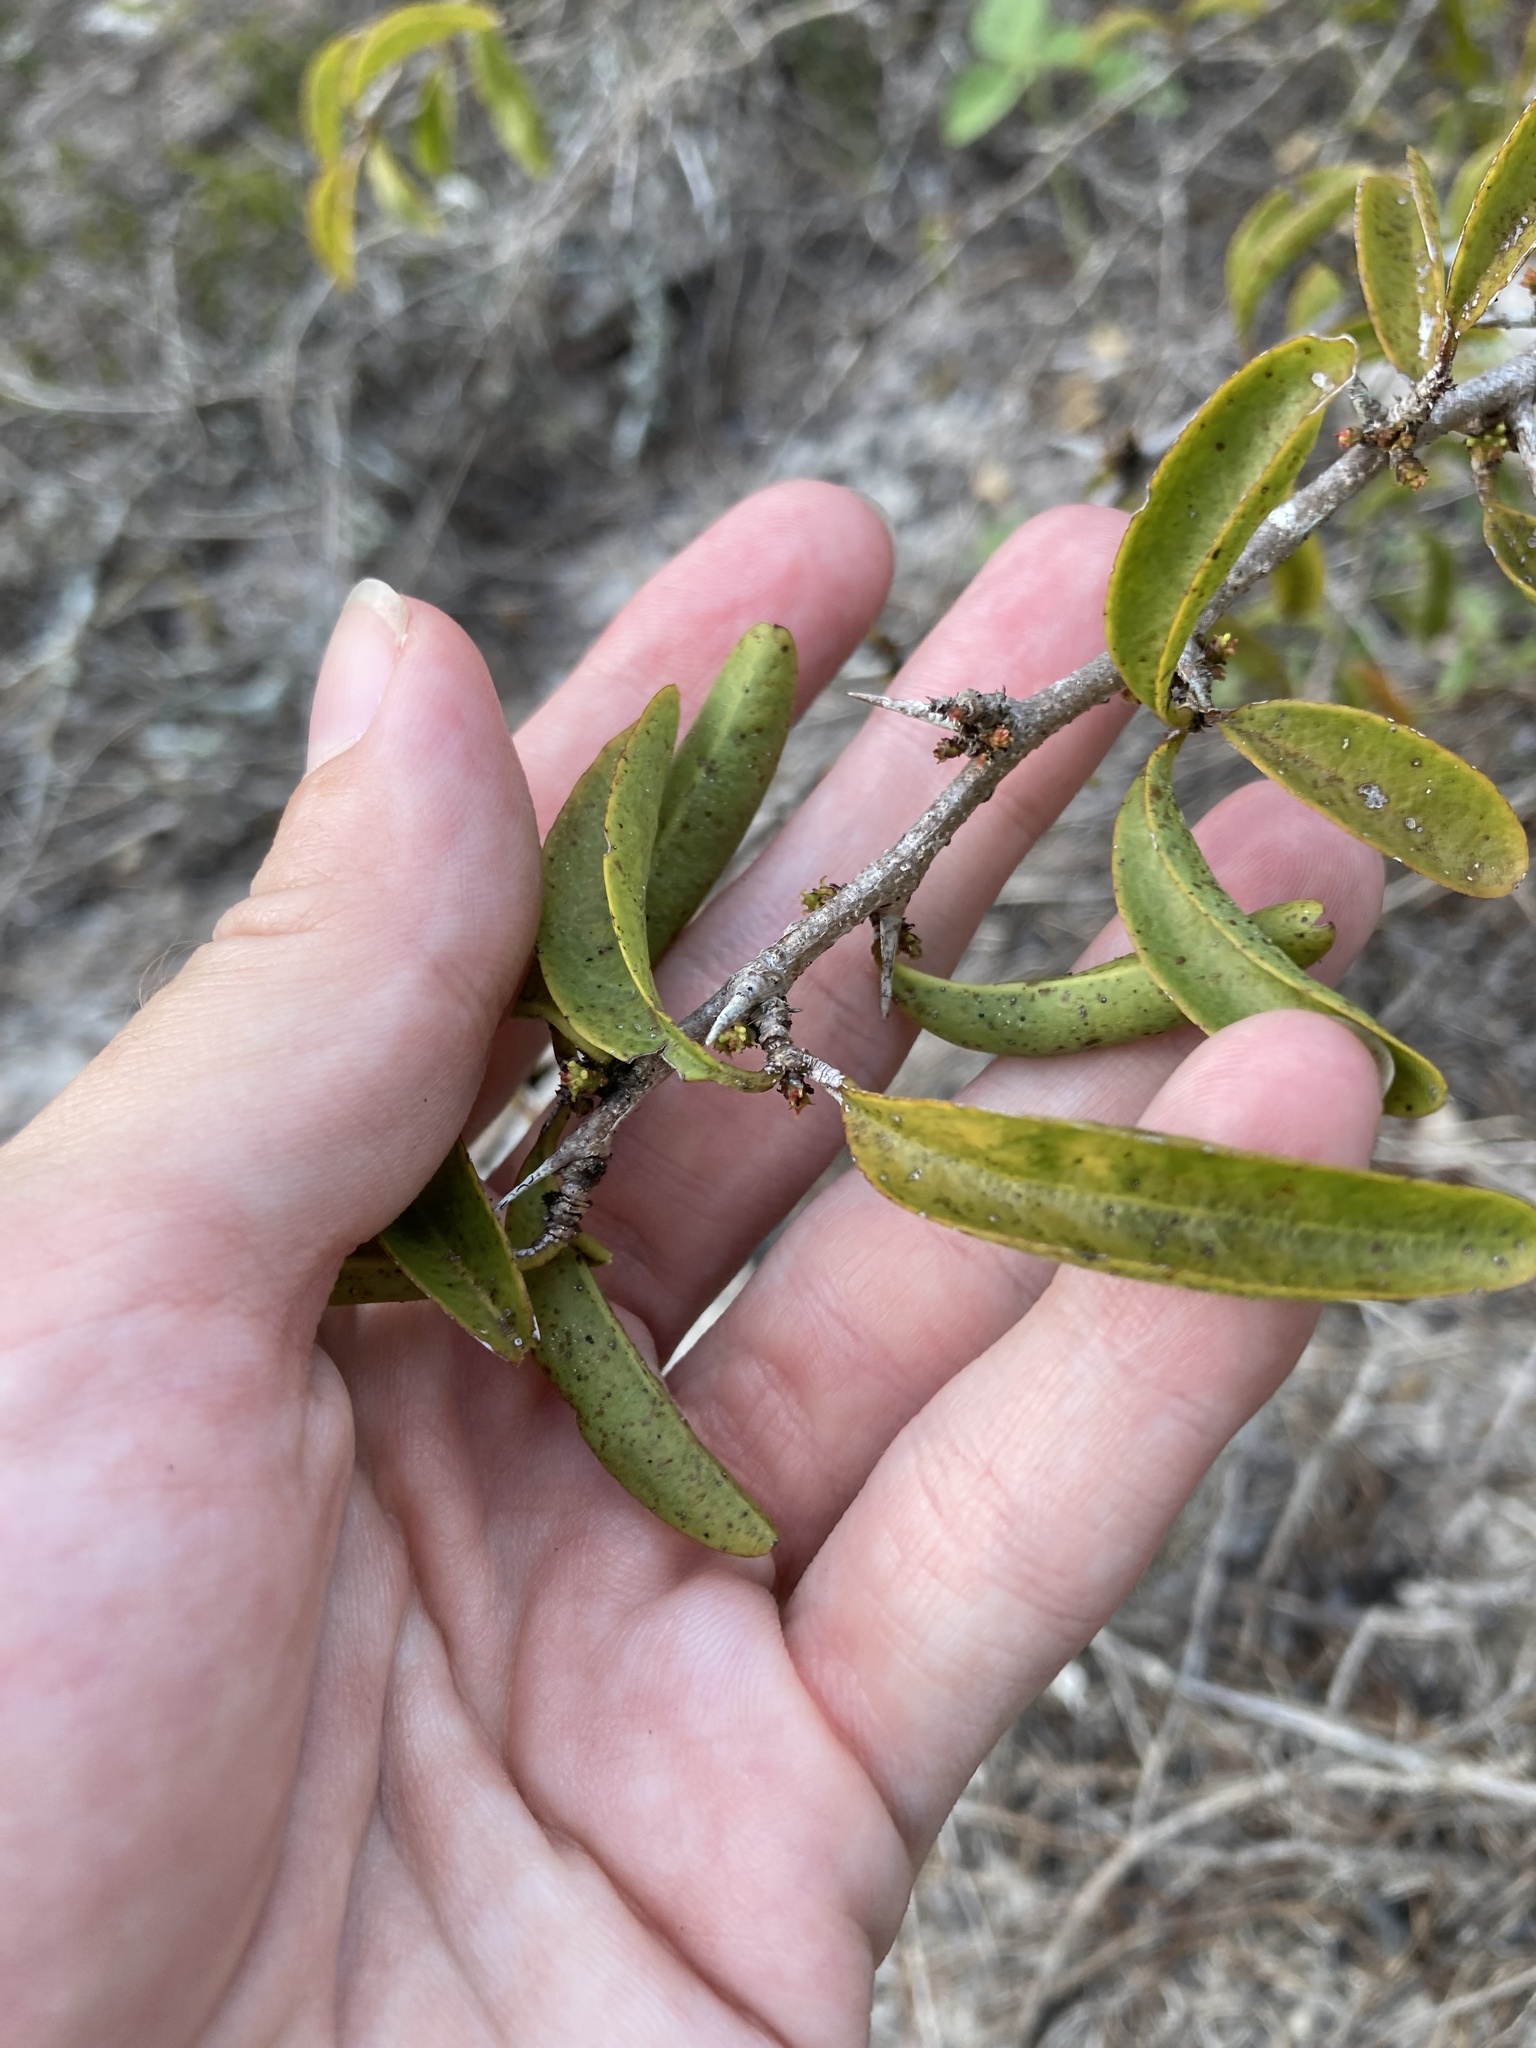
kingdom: Plantae
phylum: Tracheophyta
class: Magnoliopsida
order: Santalales
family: Ximeniaceae
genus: Ximenia
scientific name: Ximenia americana
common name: Tallowwood
